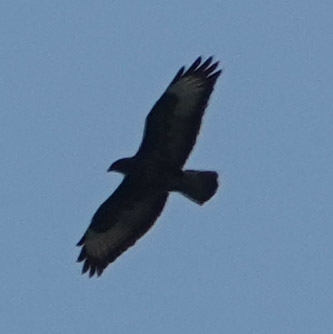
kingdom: Animalia
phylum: Chordata
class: Aves
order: Accipitriformes
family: Accipitridae
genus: Buteo
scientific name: Buteo buteo
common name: Common buzzard
